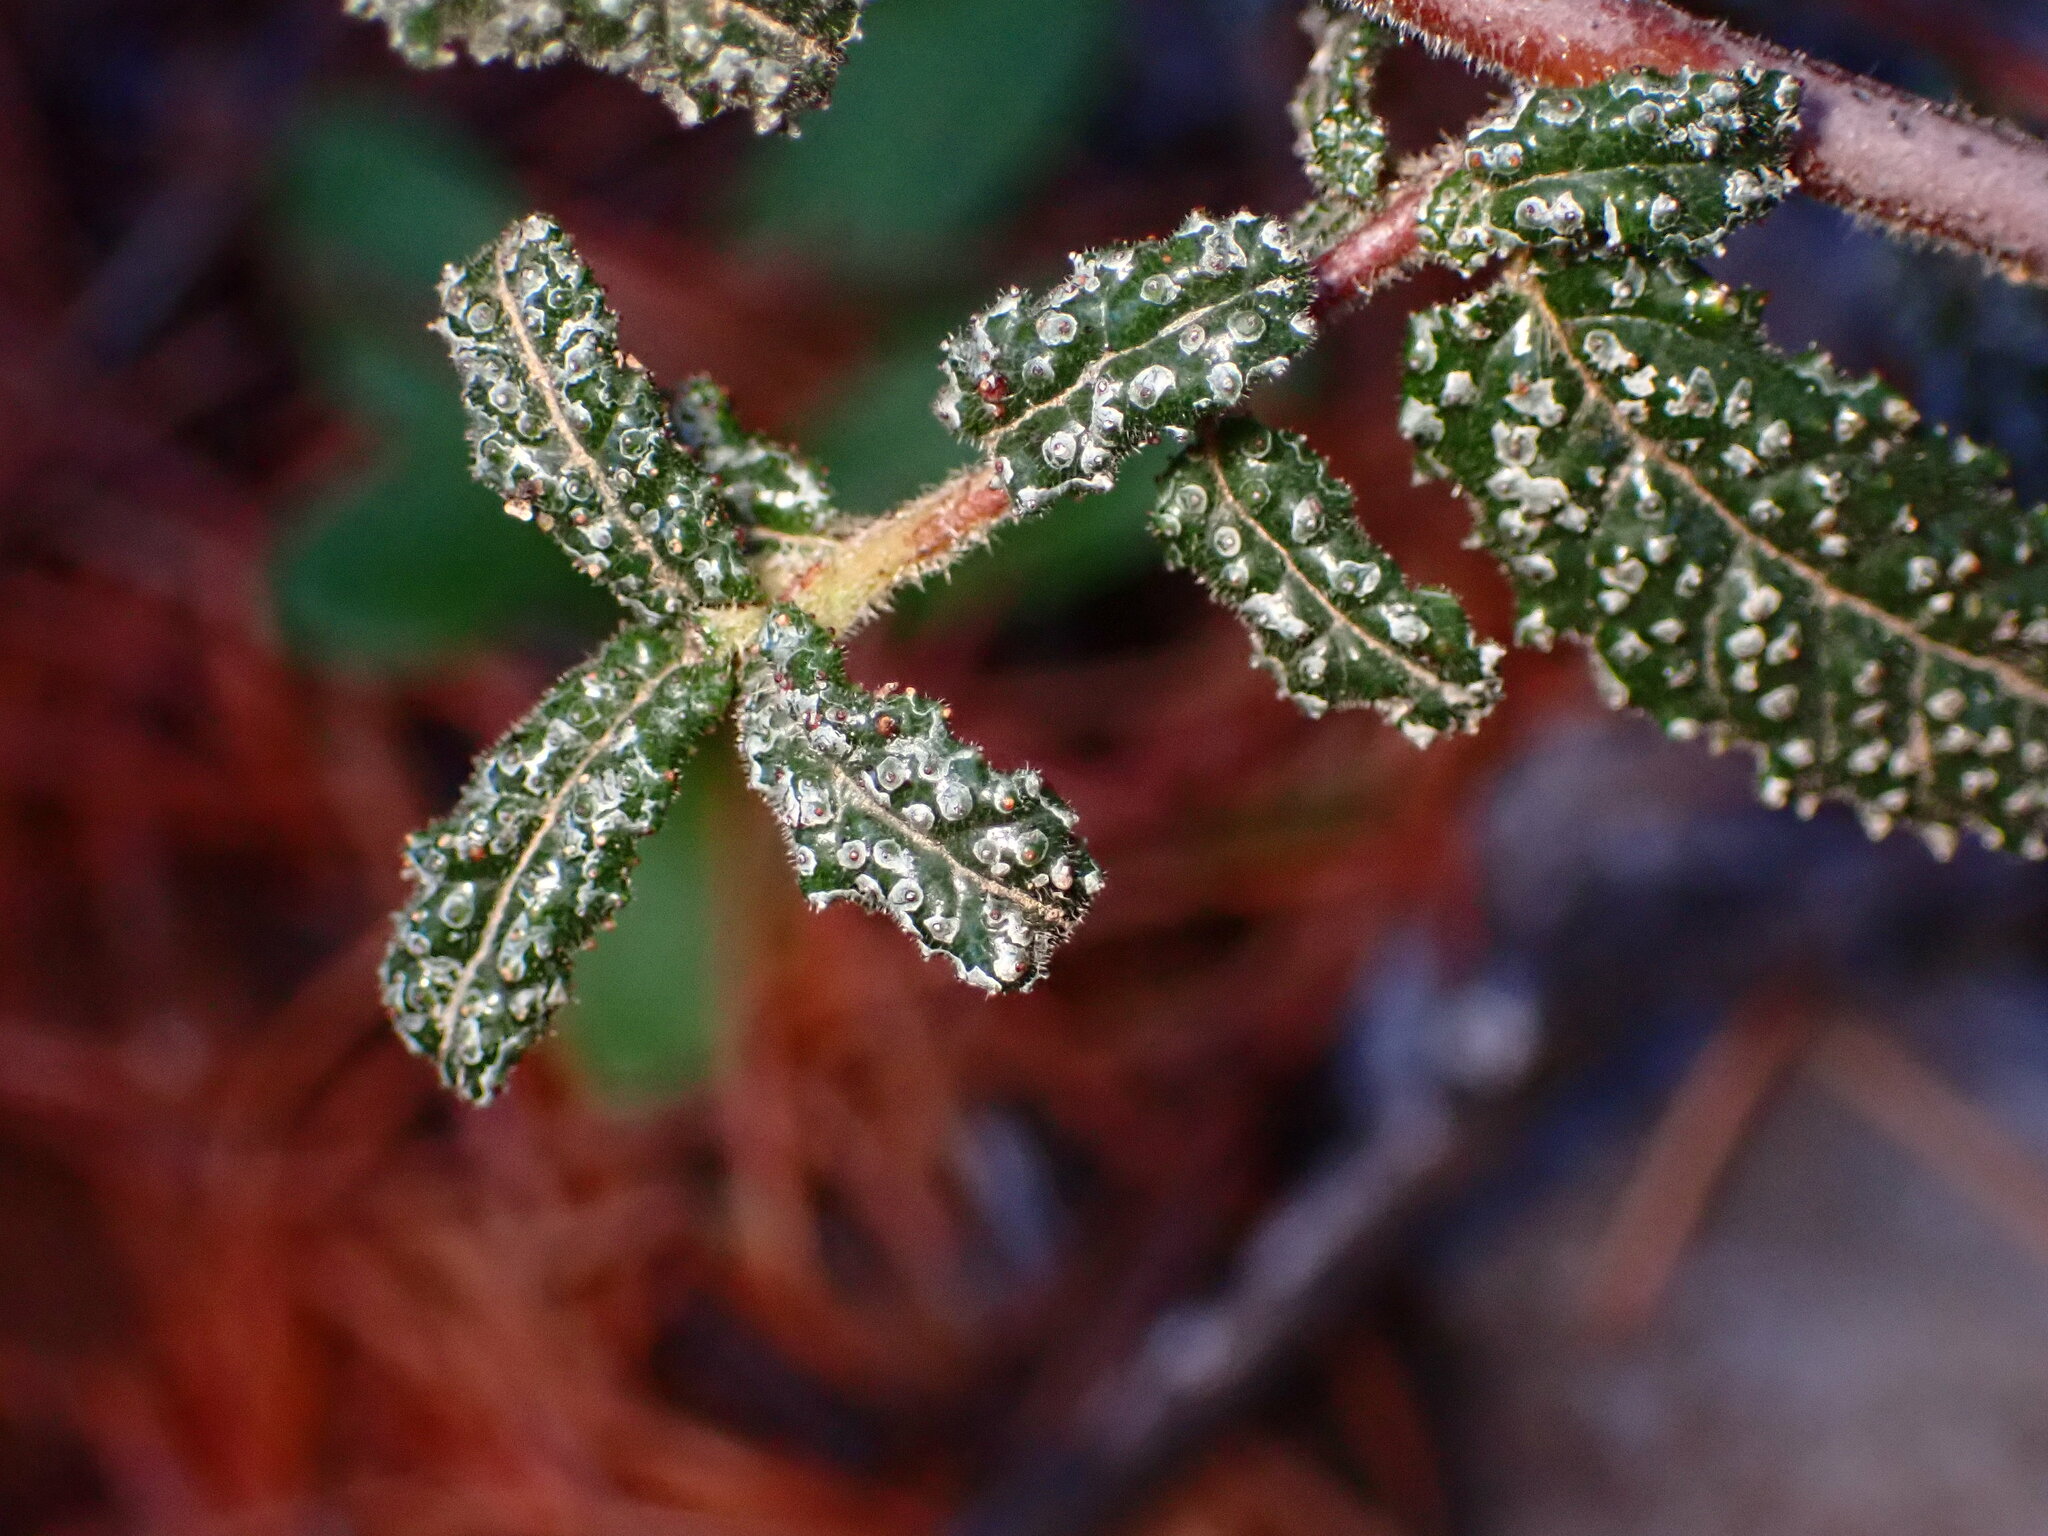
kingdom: Plantae
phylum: Tracheophyta
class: Magnoliopsida
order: Rosales
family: Rhamnaceae
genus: Ceanothus
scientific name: Ceanothus papillosus
